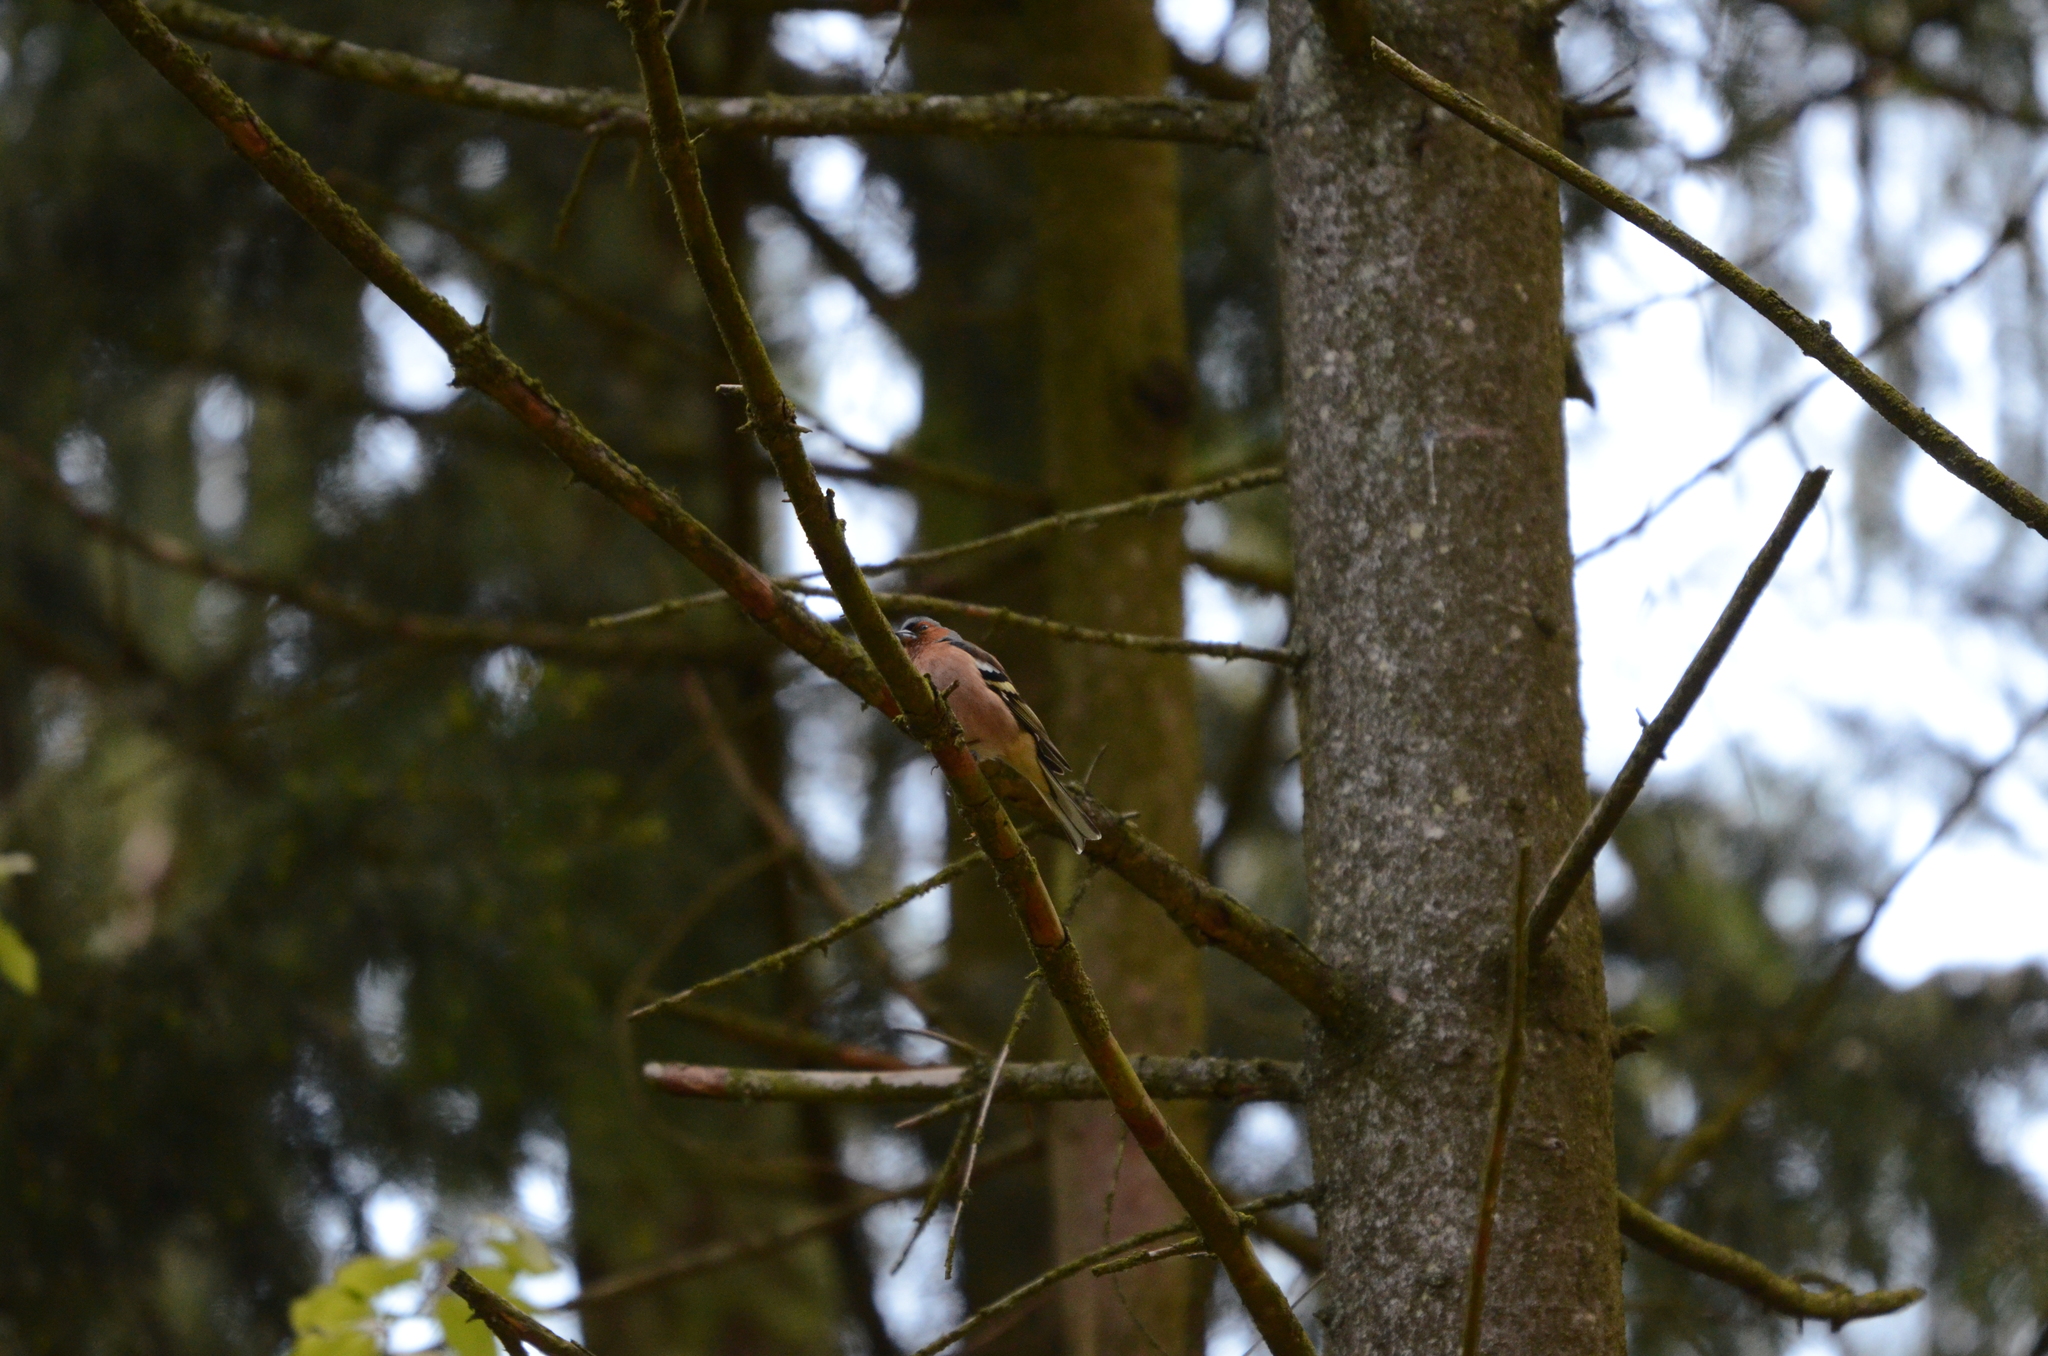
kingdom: Animalia
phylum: Chordata
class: Aves
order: Passeriformes
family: Fringillidae
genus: Fringilla
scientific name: Fringilla coelebs
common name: Common chaffinch
